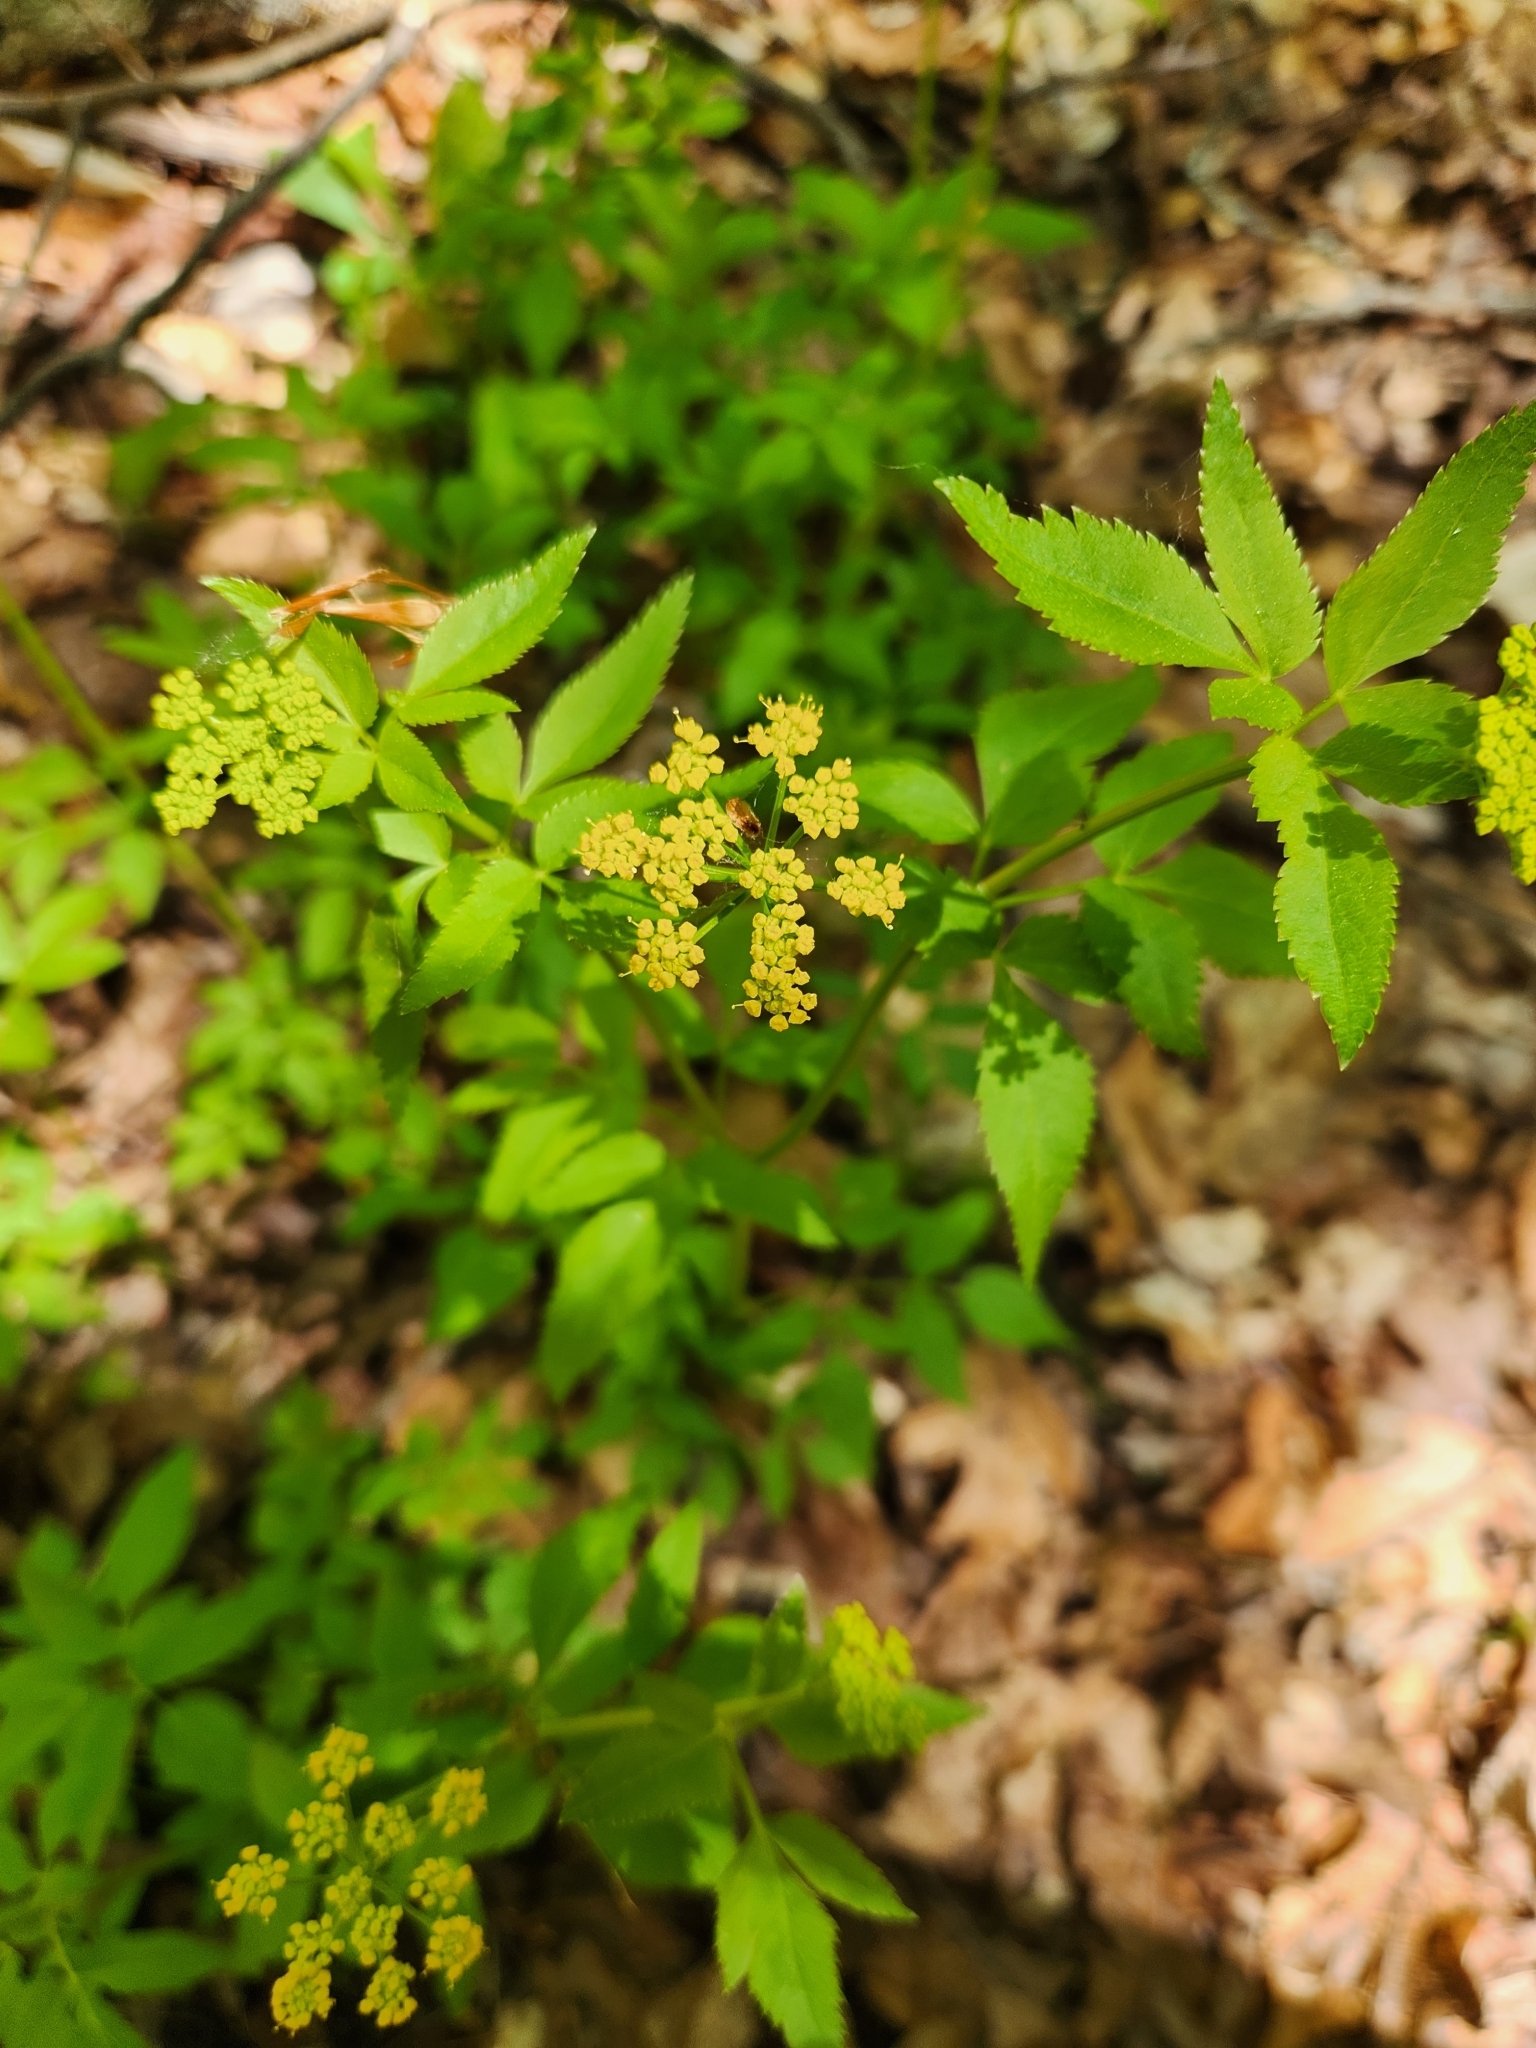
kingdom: Plantae
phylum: Tracheophyta
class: Magnoliopsida
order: Apiales
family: Apiaceae
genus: Zizia
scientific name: Zizia aurea
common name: Golden alexanders
